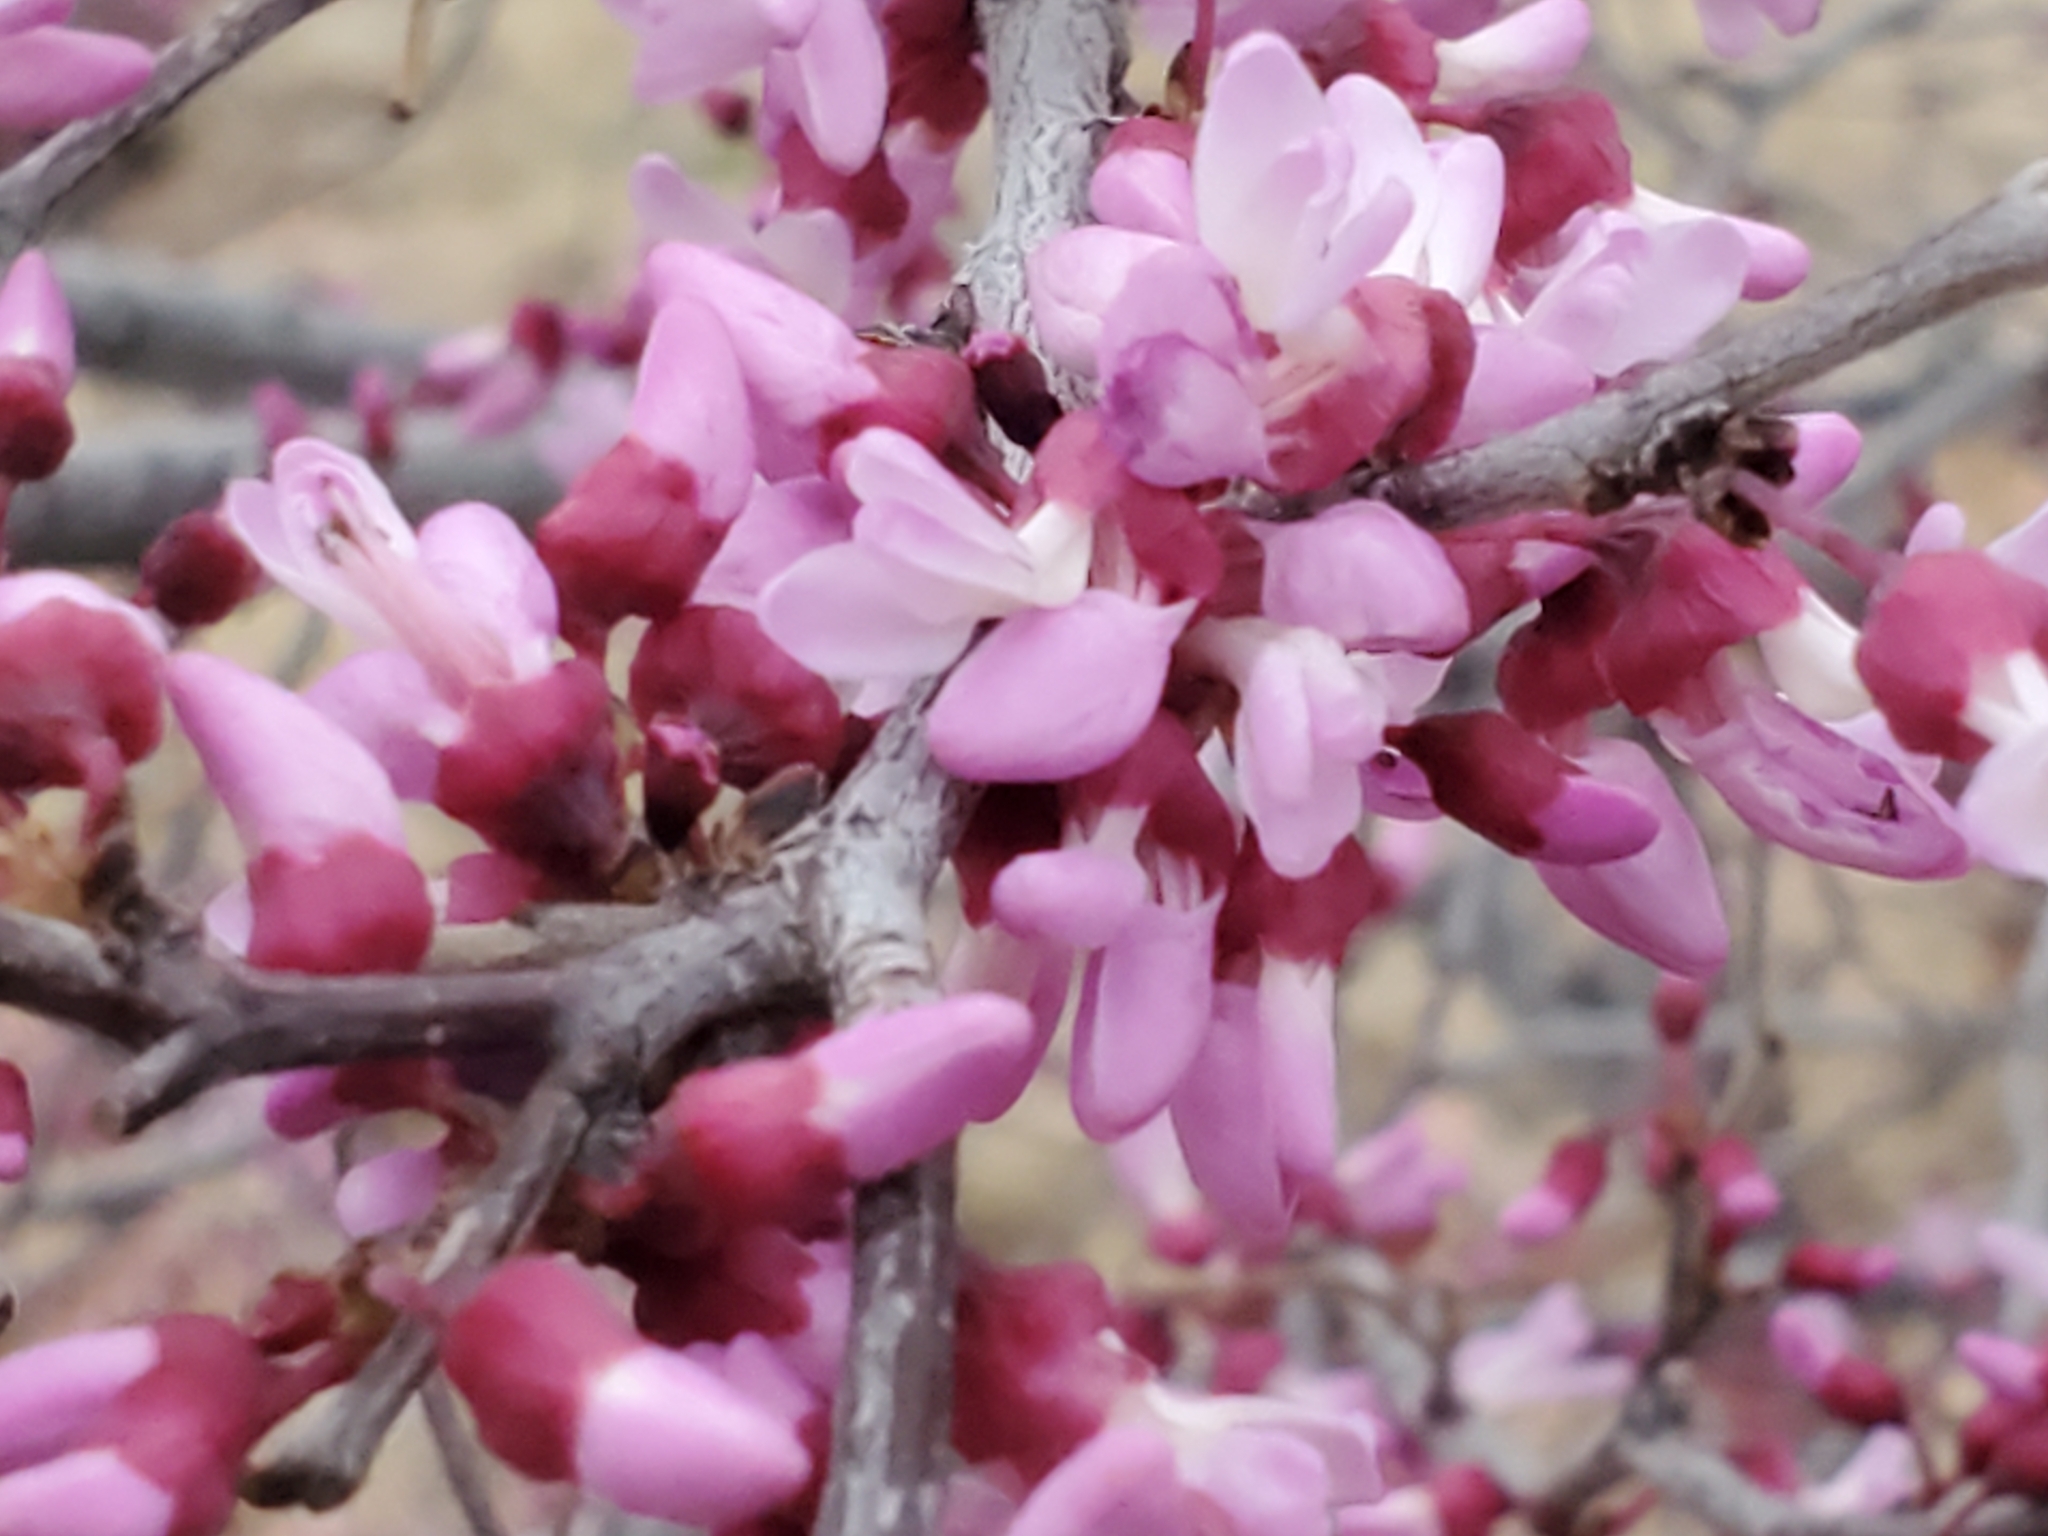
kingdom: Plantae
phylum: Tracheophyta
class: Magnoliopsida
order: Fabales
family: Fabaceae
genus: Cercis
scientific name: Cercis canadensis
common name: Eastern redbud
